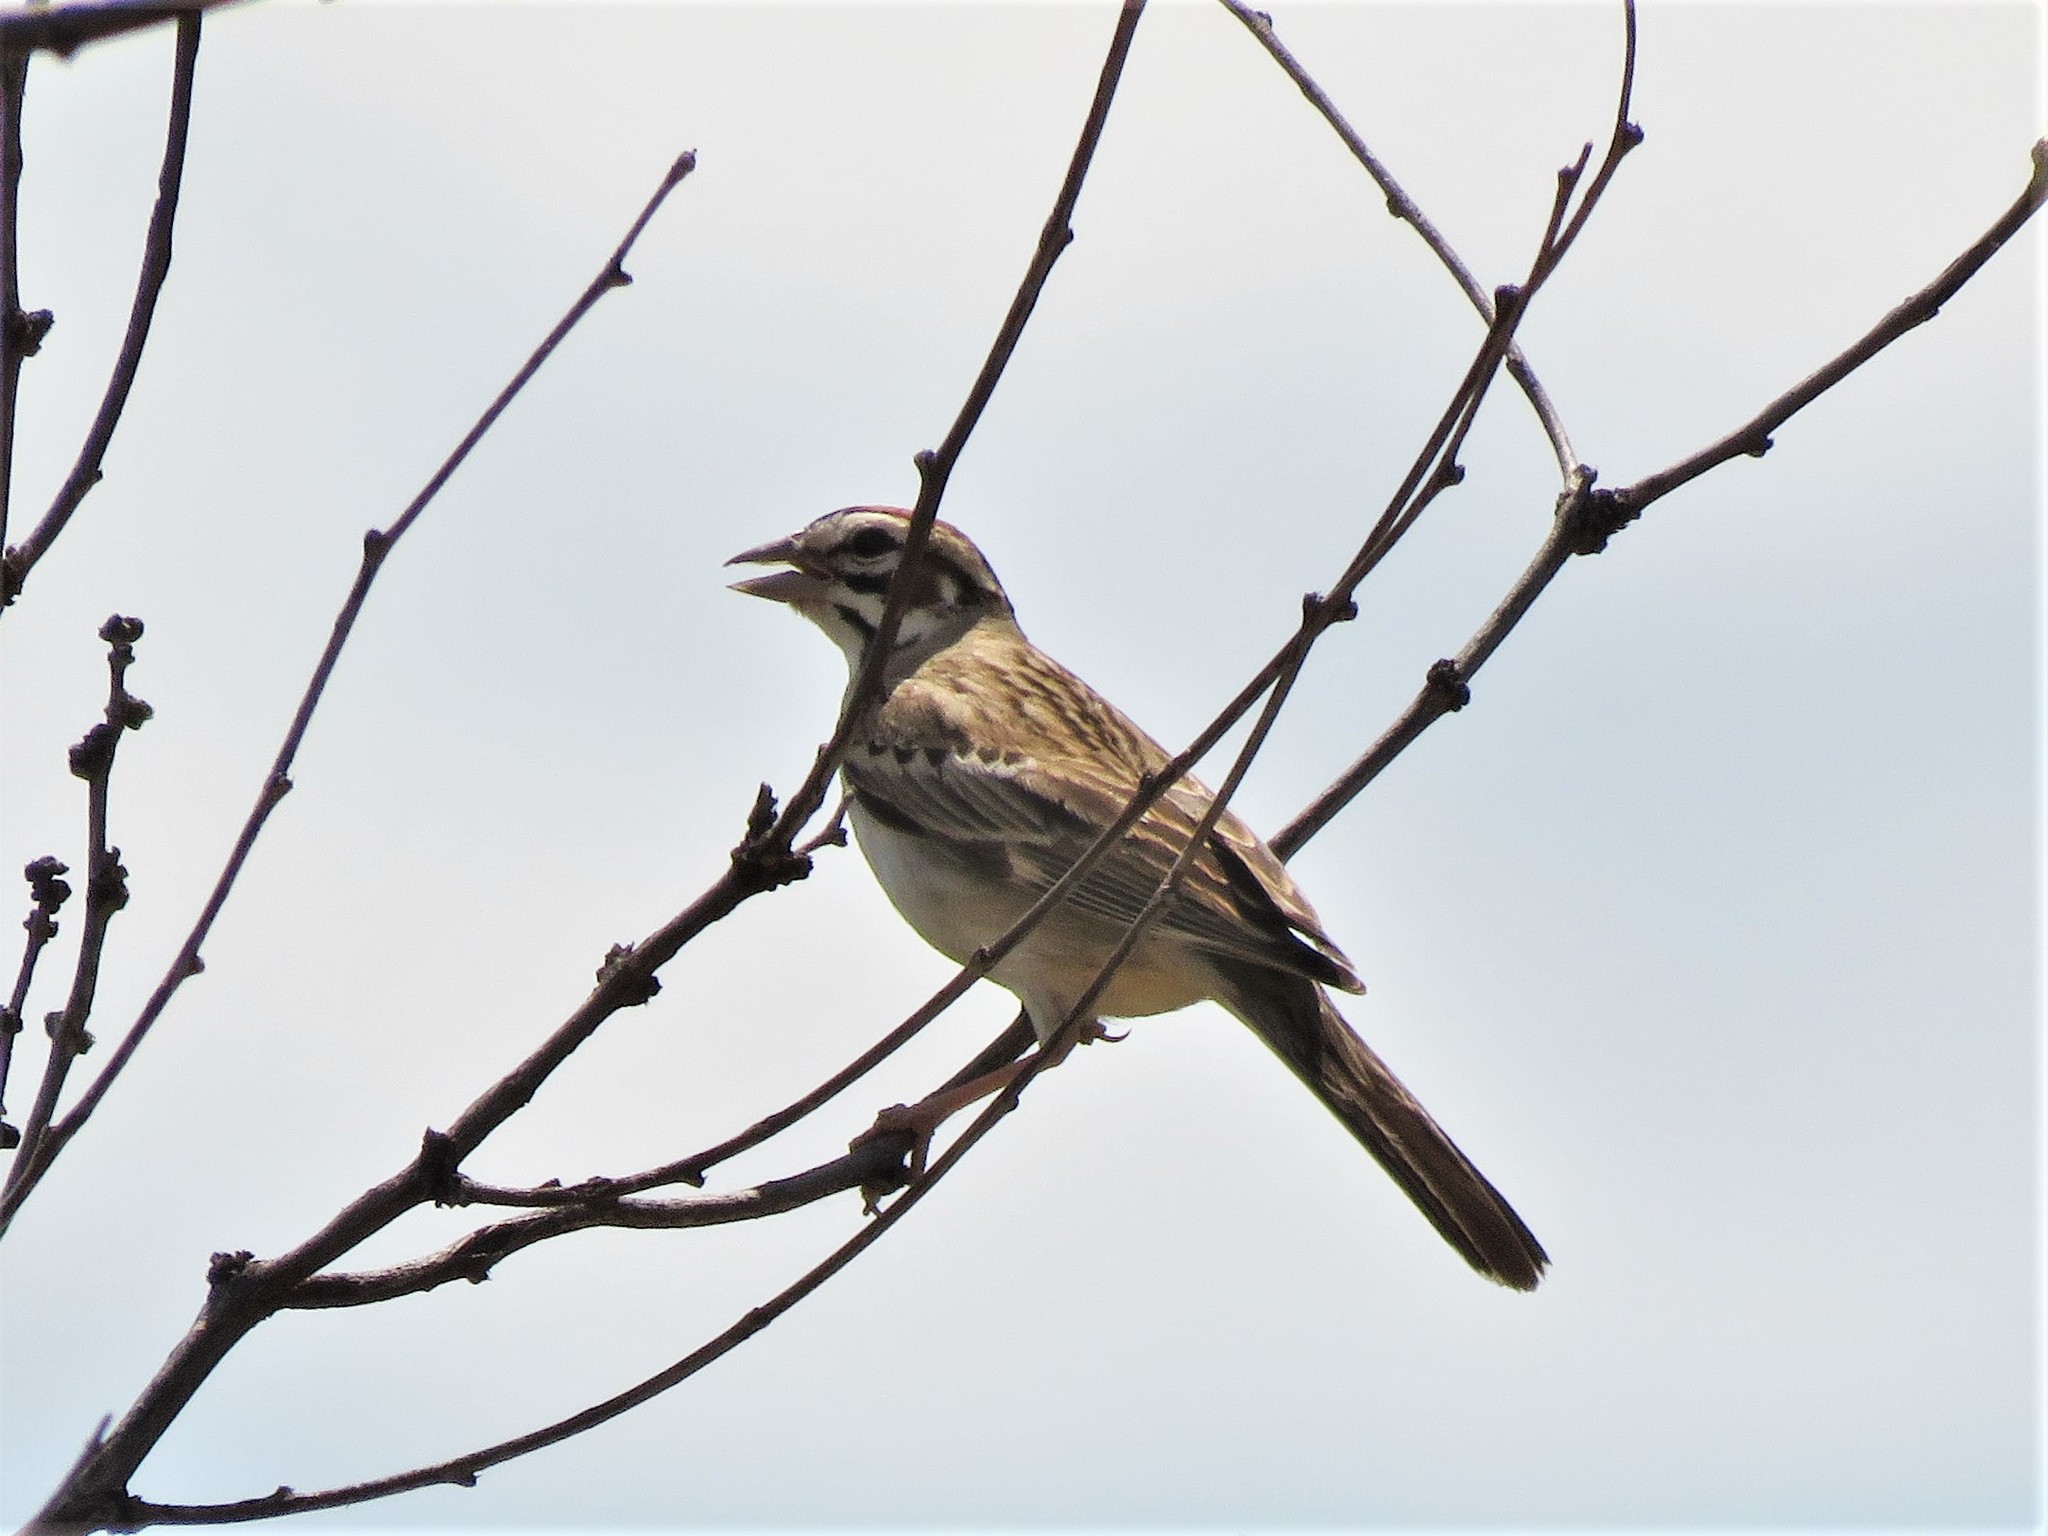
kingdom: Animalia
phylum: Chordata
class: Aves
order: Passeriformes
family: Passerellidae
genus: Chondestes
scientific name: Chondestes grammacus
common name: Lark sparrow
